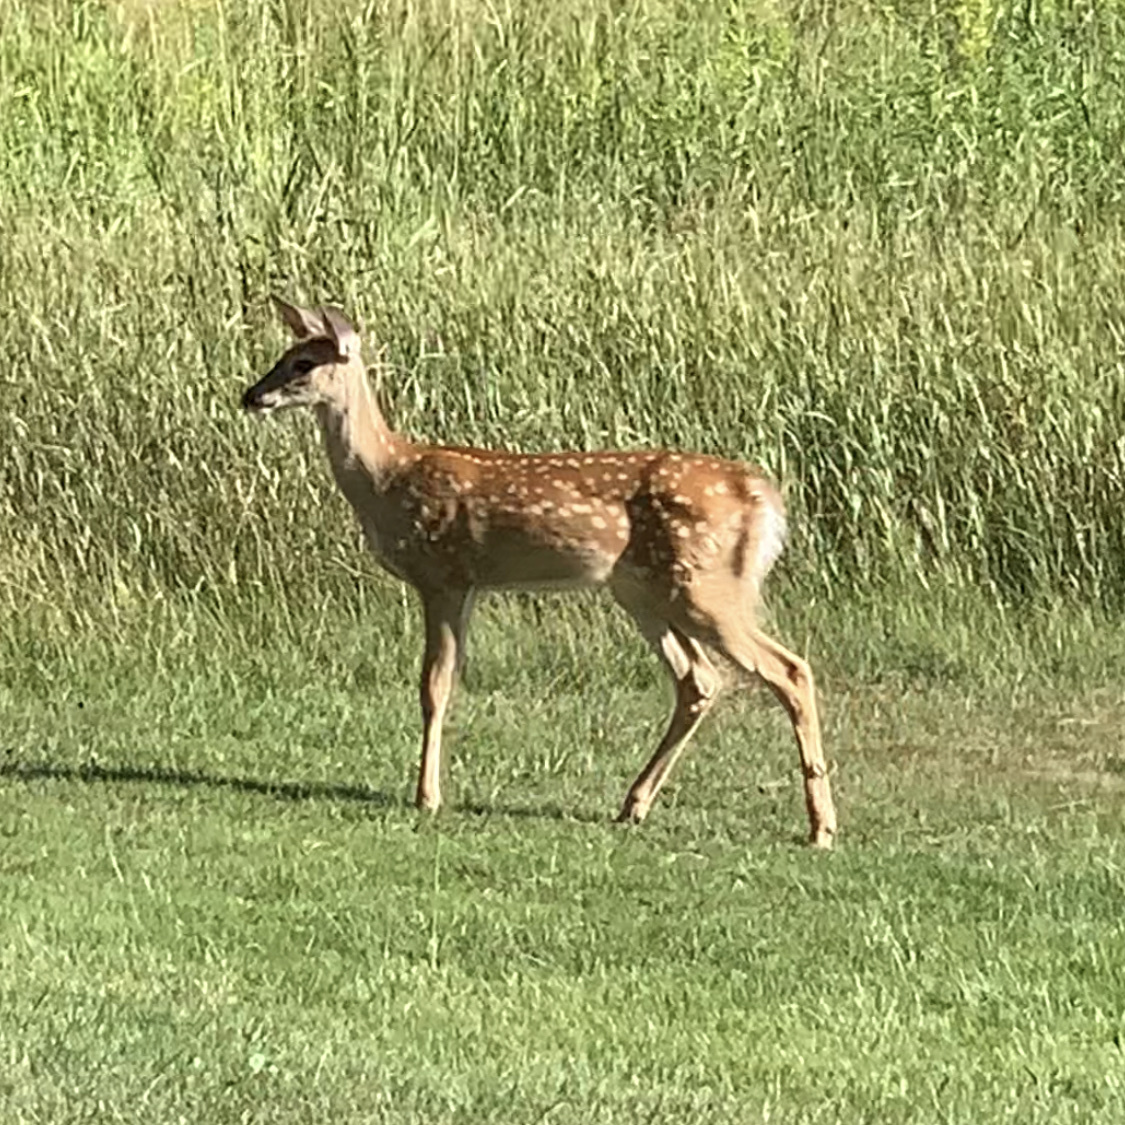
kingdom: Animalia
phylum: Chordata
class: Mammalia
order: Artiodactyla
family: Cervidae
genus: Odocoileus
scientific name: Odocoileus virginianus
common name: White-tailed deer
